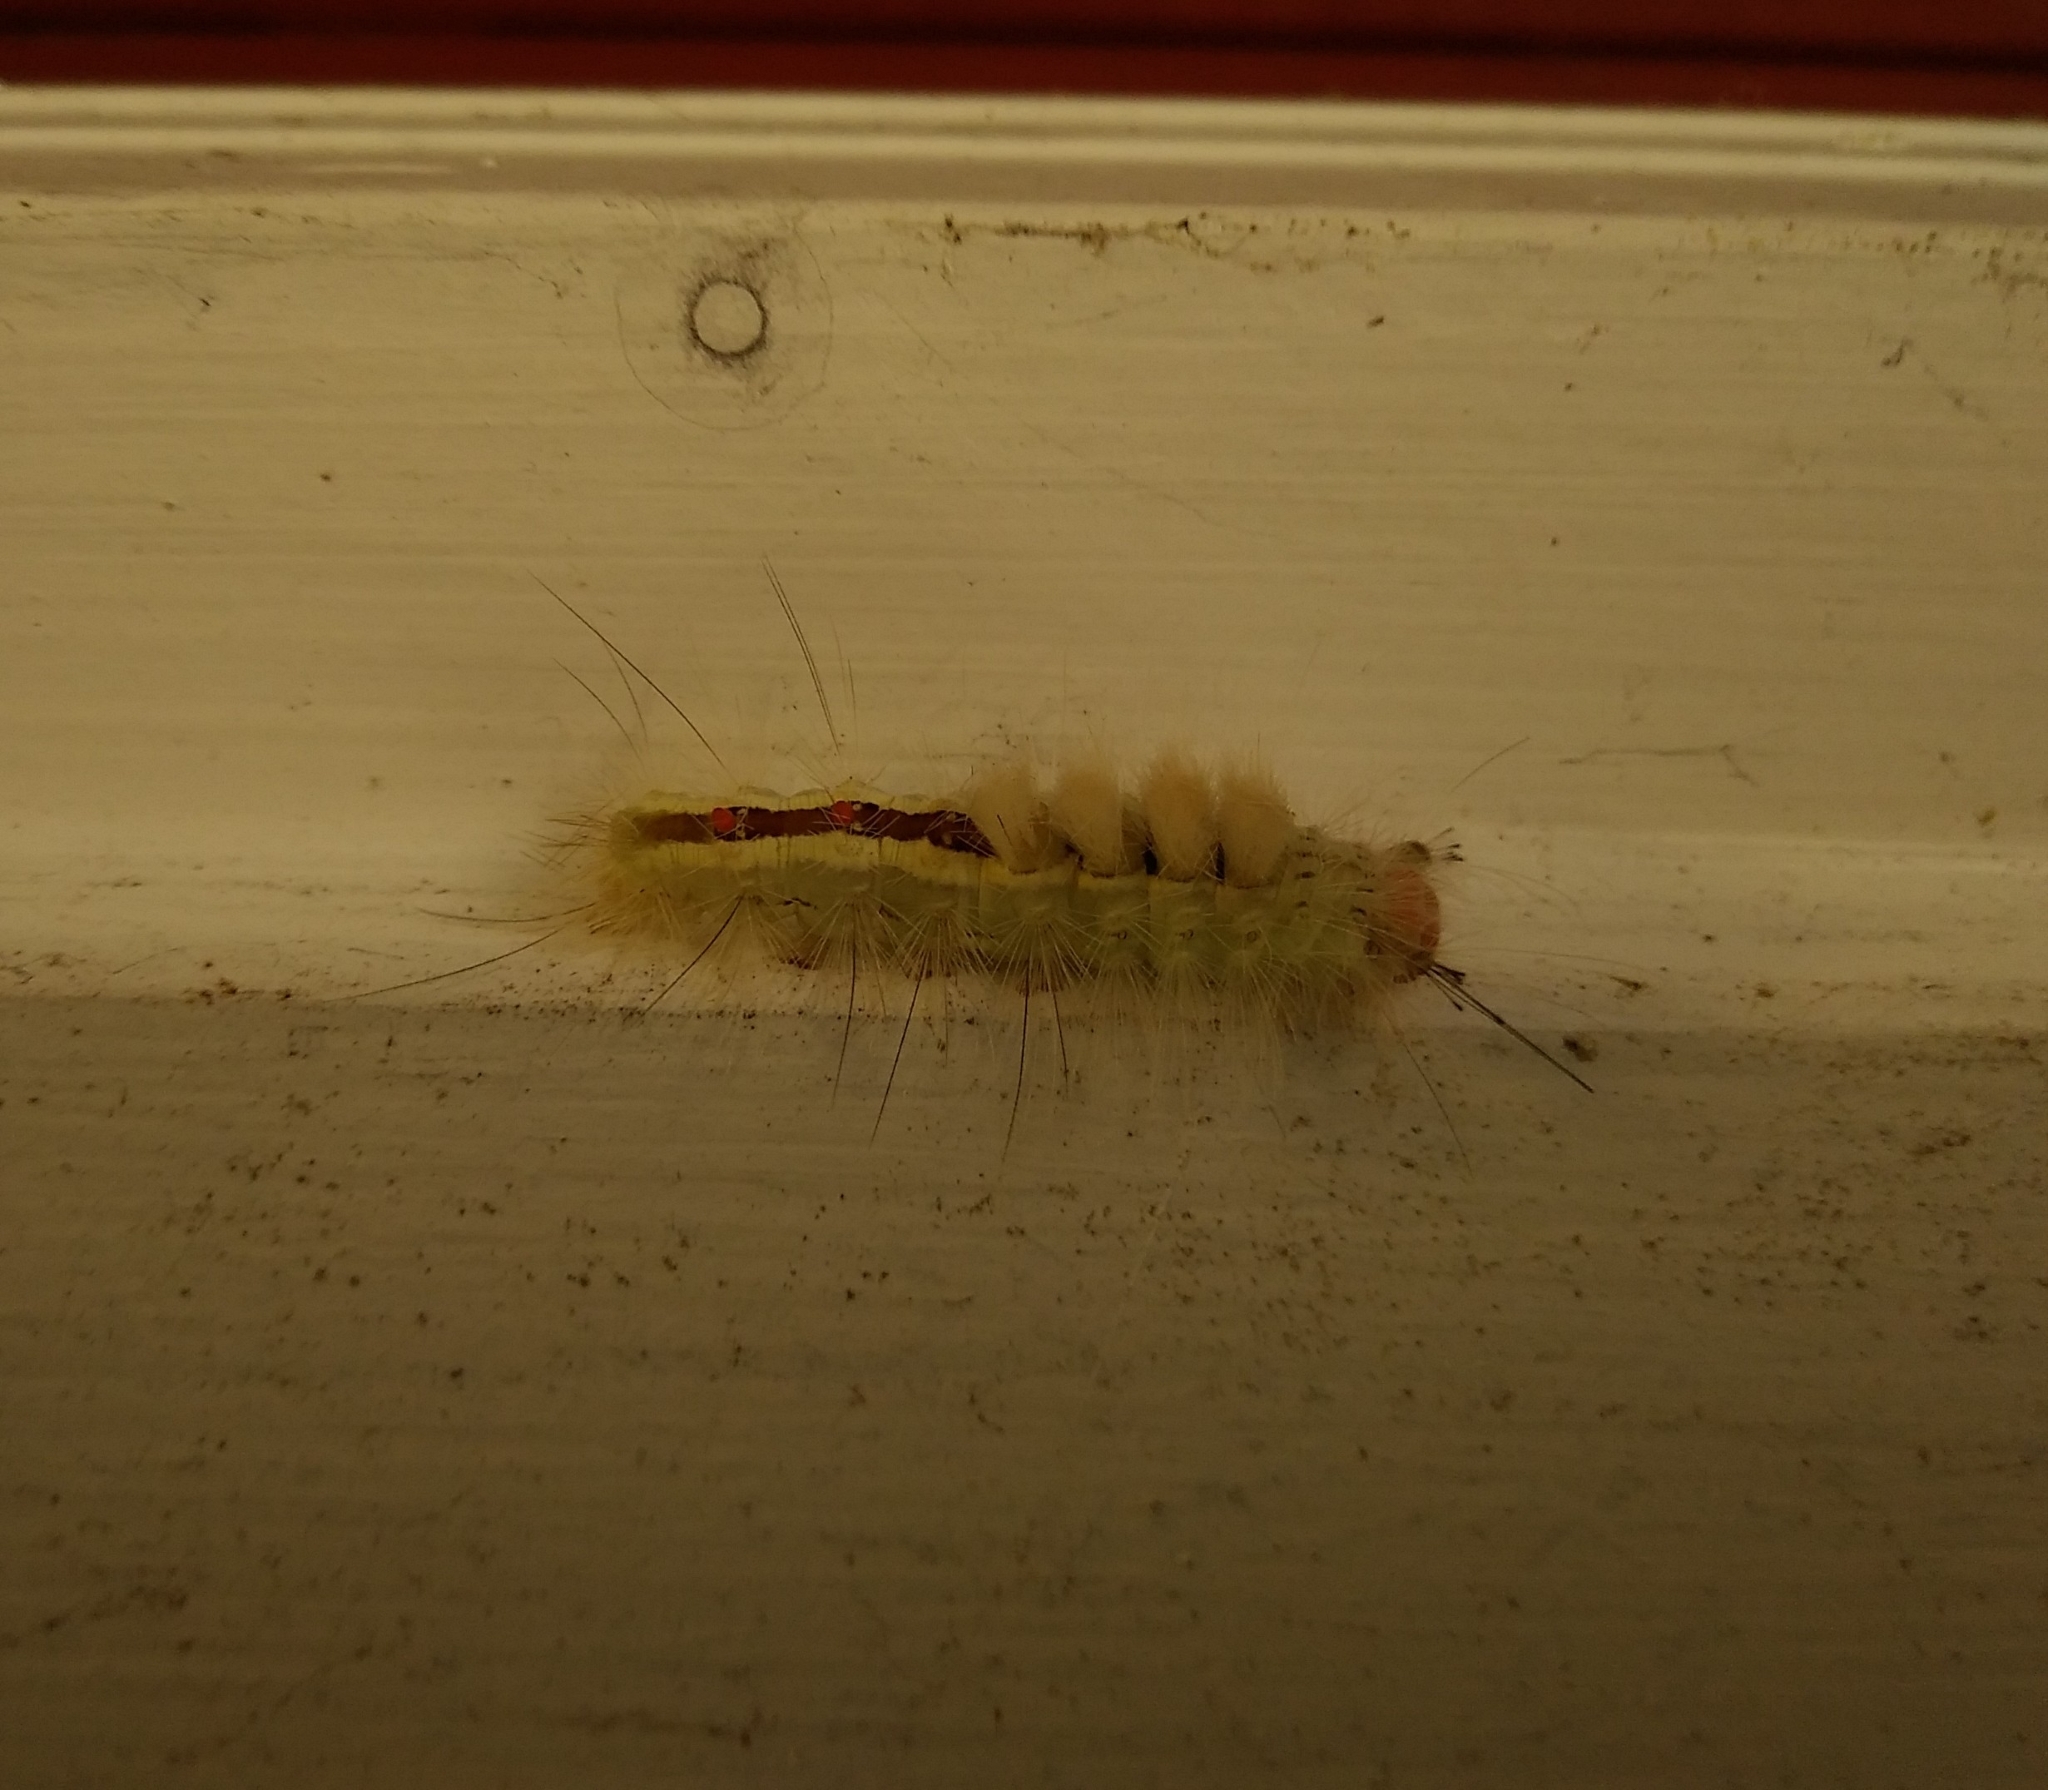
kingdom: Animalia
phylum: Arthropoda
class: Insecta
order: Lepidoptera
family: Erebidae
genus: Orgyia
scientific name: Orgyia leucostigma
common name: White-marked tussock moth
